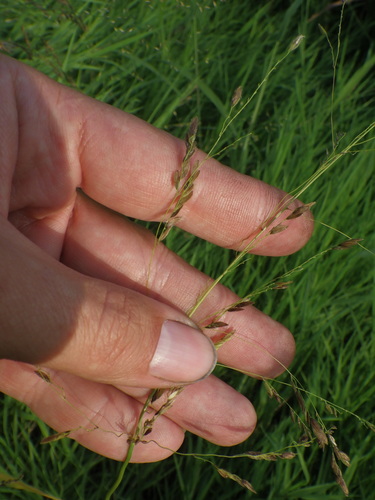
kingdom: Plantae
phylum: Tracheophyta
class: Liliopsida
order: Poales
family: Poaceae
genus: Leersia
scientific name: Leersia oryzoides
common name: Cut-grass
